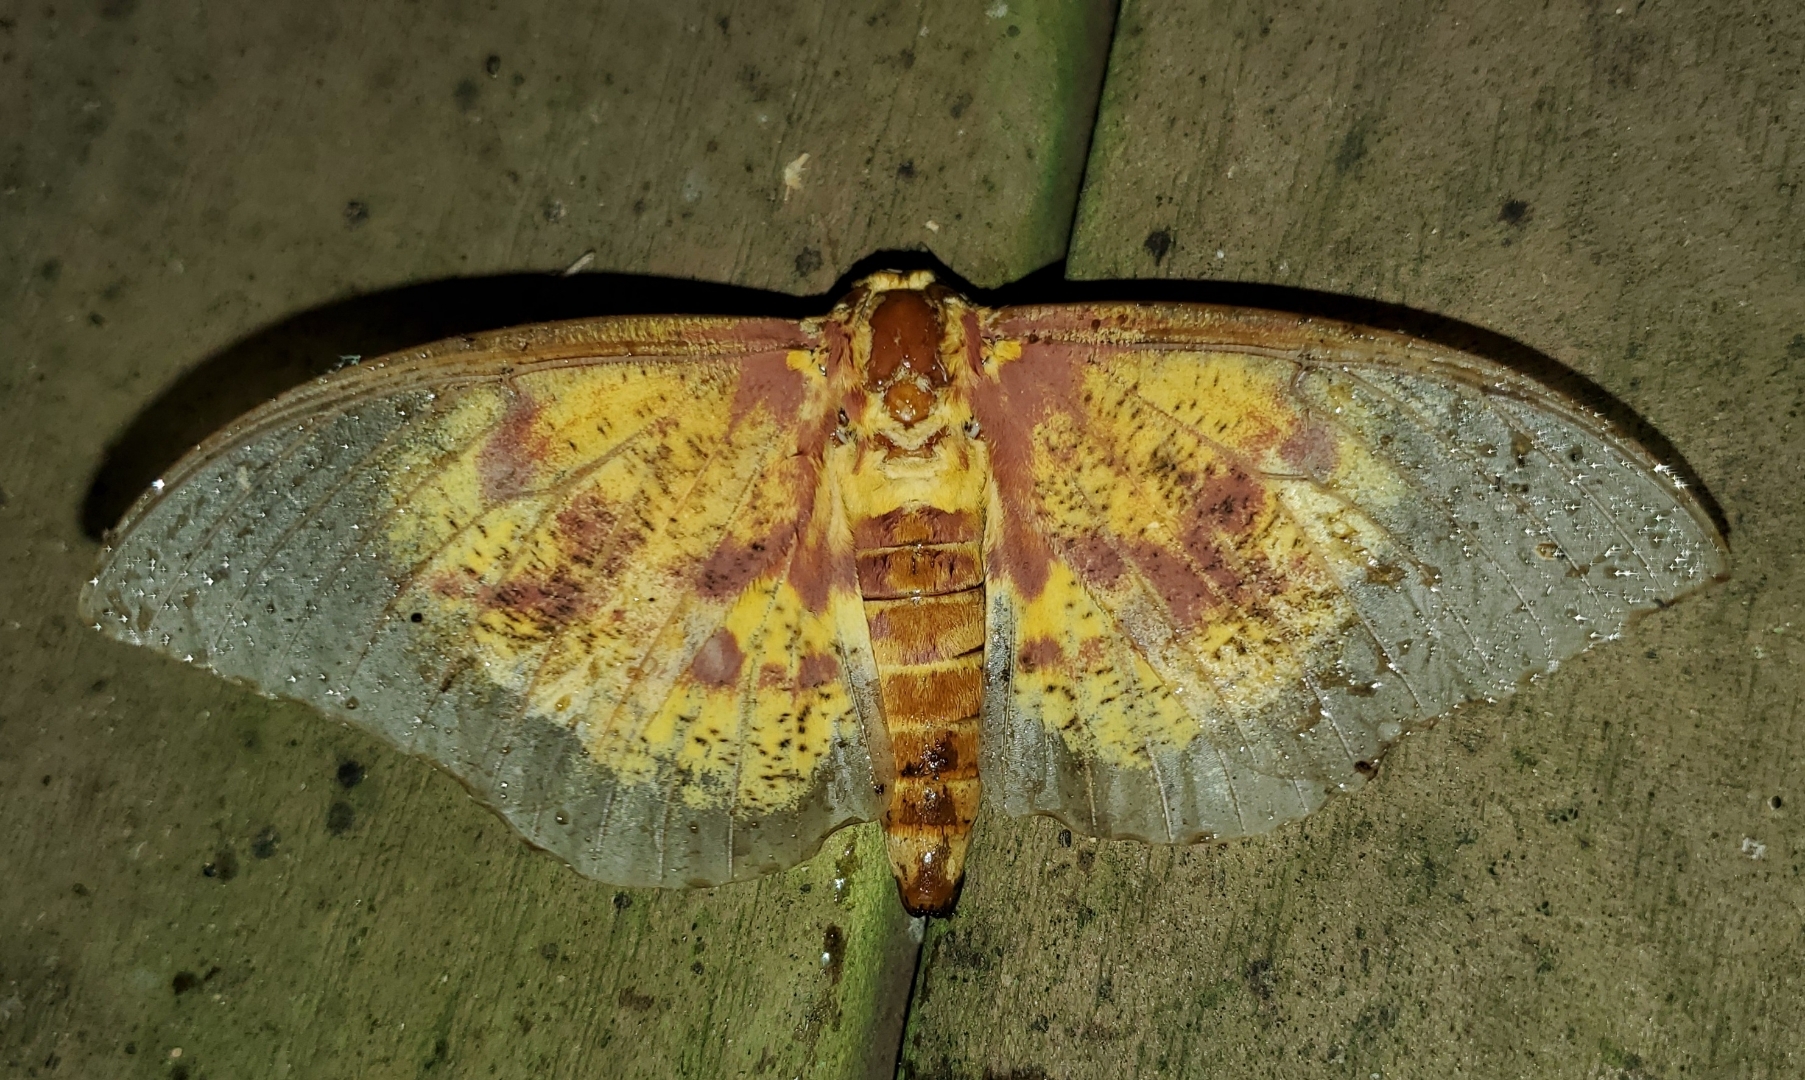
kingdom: Animalia
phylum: Arthropoda
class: Insecta
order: Lepidoptera
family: Saturniidae
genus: Eacles
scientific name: Eacles imperialis
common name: Imperial moth
